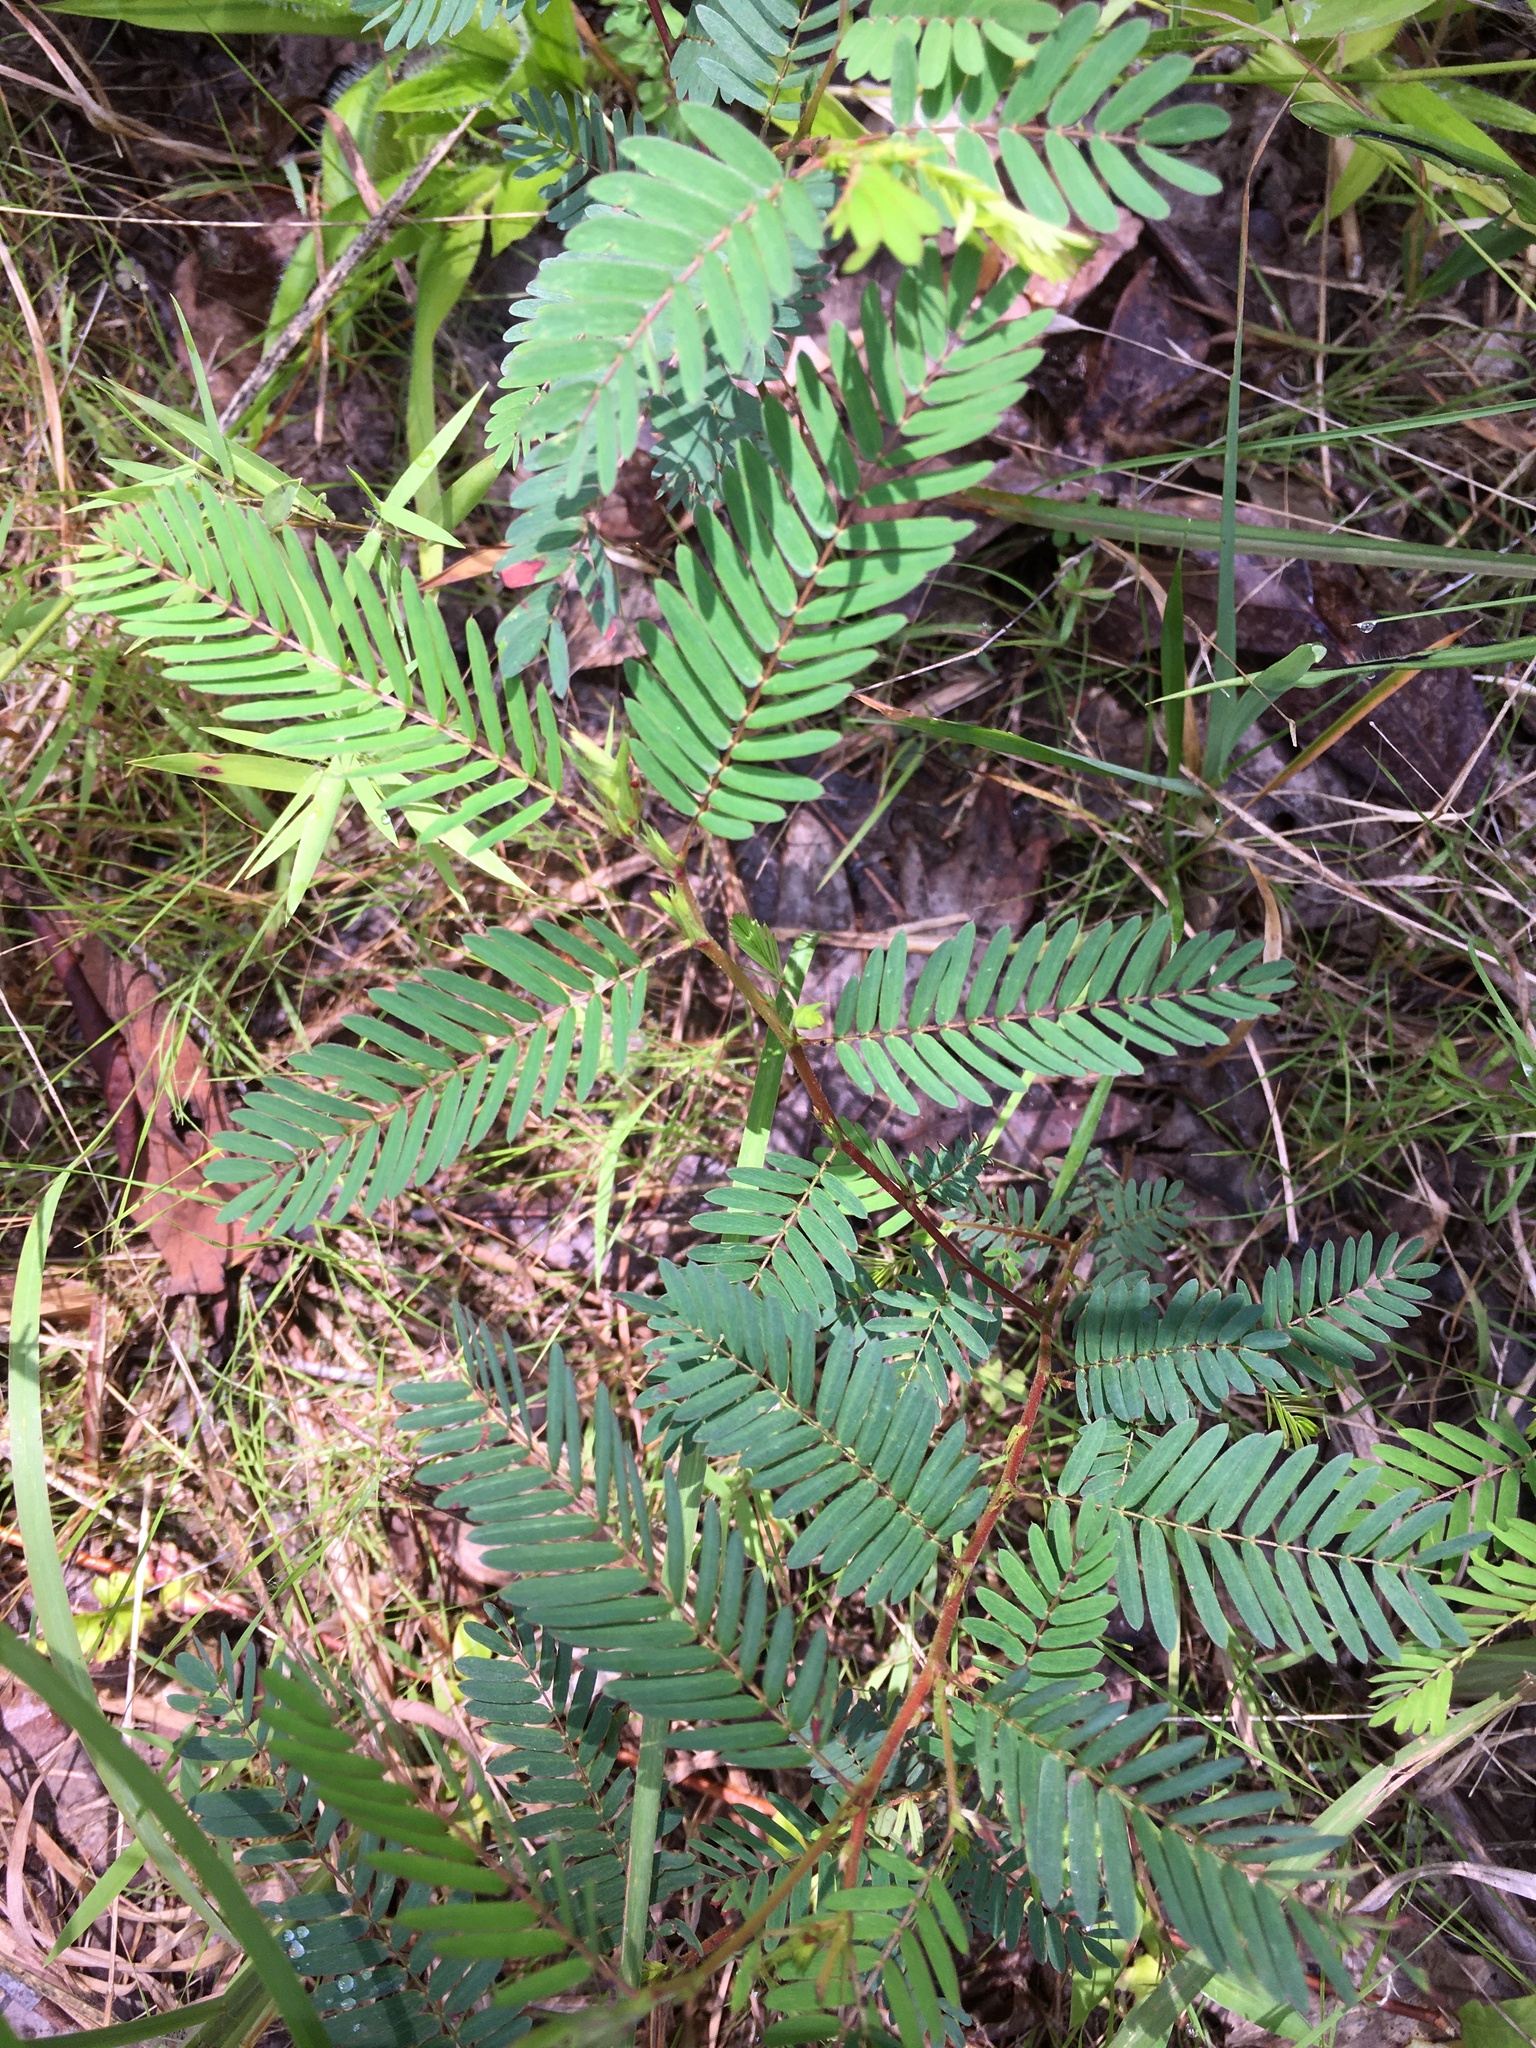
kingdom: Plantae
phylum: Tracheophyta
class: Magnoliopsida
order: Fabales
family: Fabaceae
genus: Chamaecrista
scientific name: Chamaecrista nictitans
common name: Sensitive cassia
